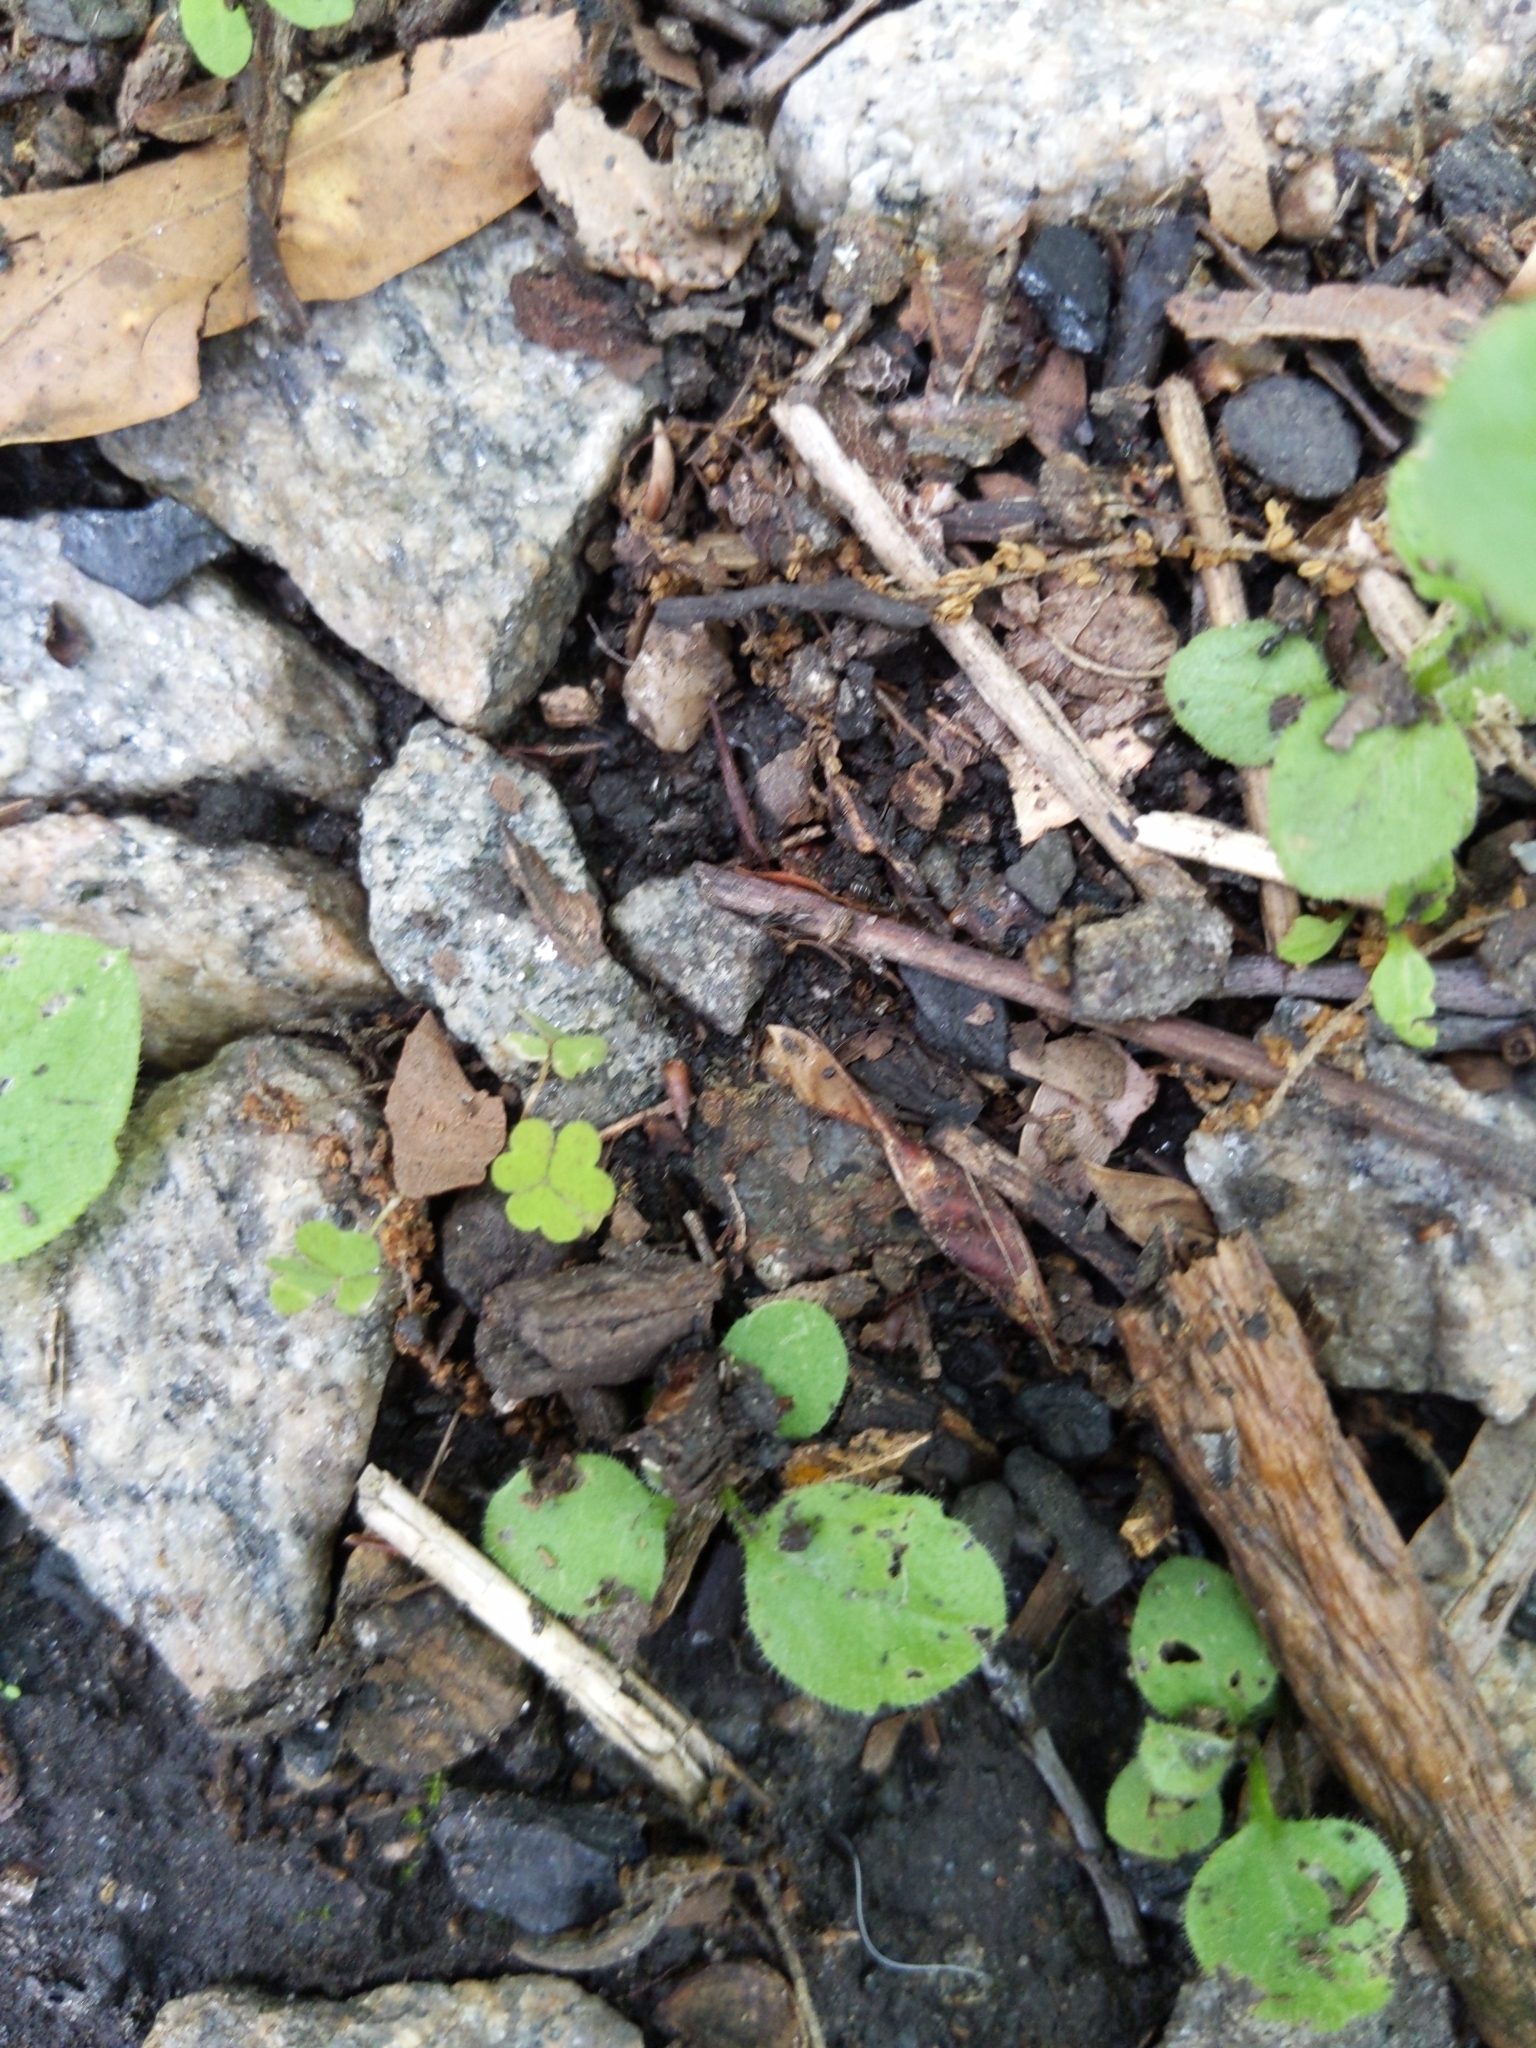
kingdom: Animalia
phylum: Arthropoda
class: Insecta
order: Hymenoptera
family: Formicidae
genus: Tapinoma
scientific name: Tapinoma sessile
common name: Odorous house ant
